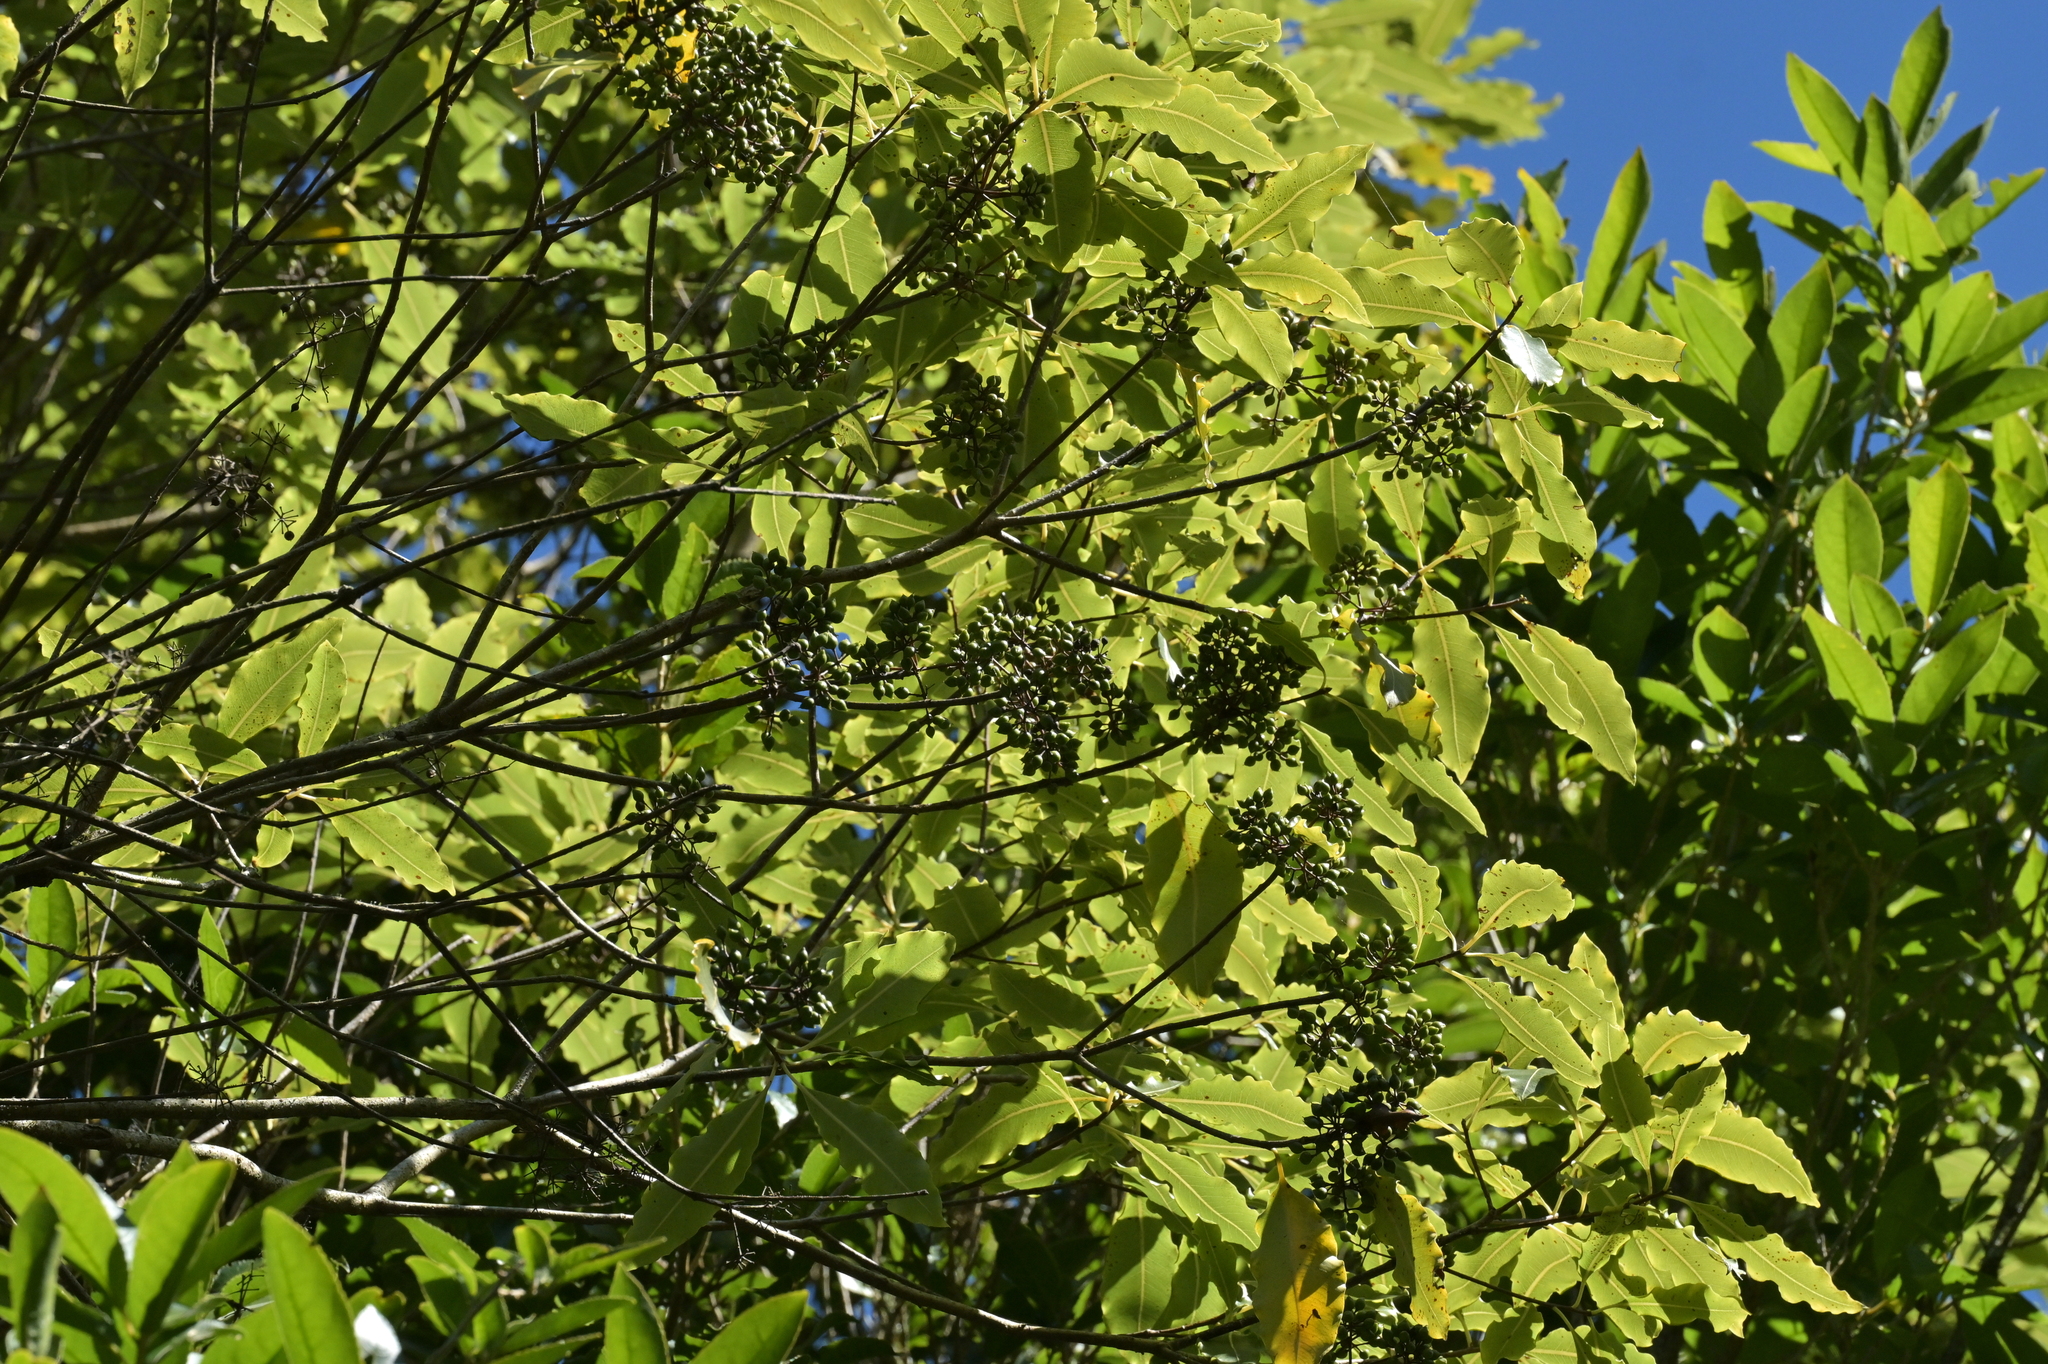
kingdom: Plantae
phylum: Tracheophyta
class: Magnoliopsida
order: Apiales
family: Pittosporaceae
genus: Pittosporum
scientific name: Pittosporum eugenioides
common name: Lemonwood
